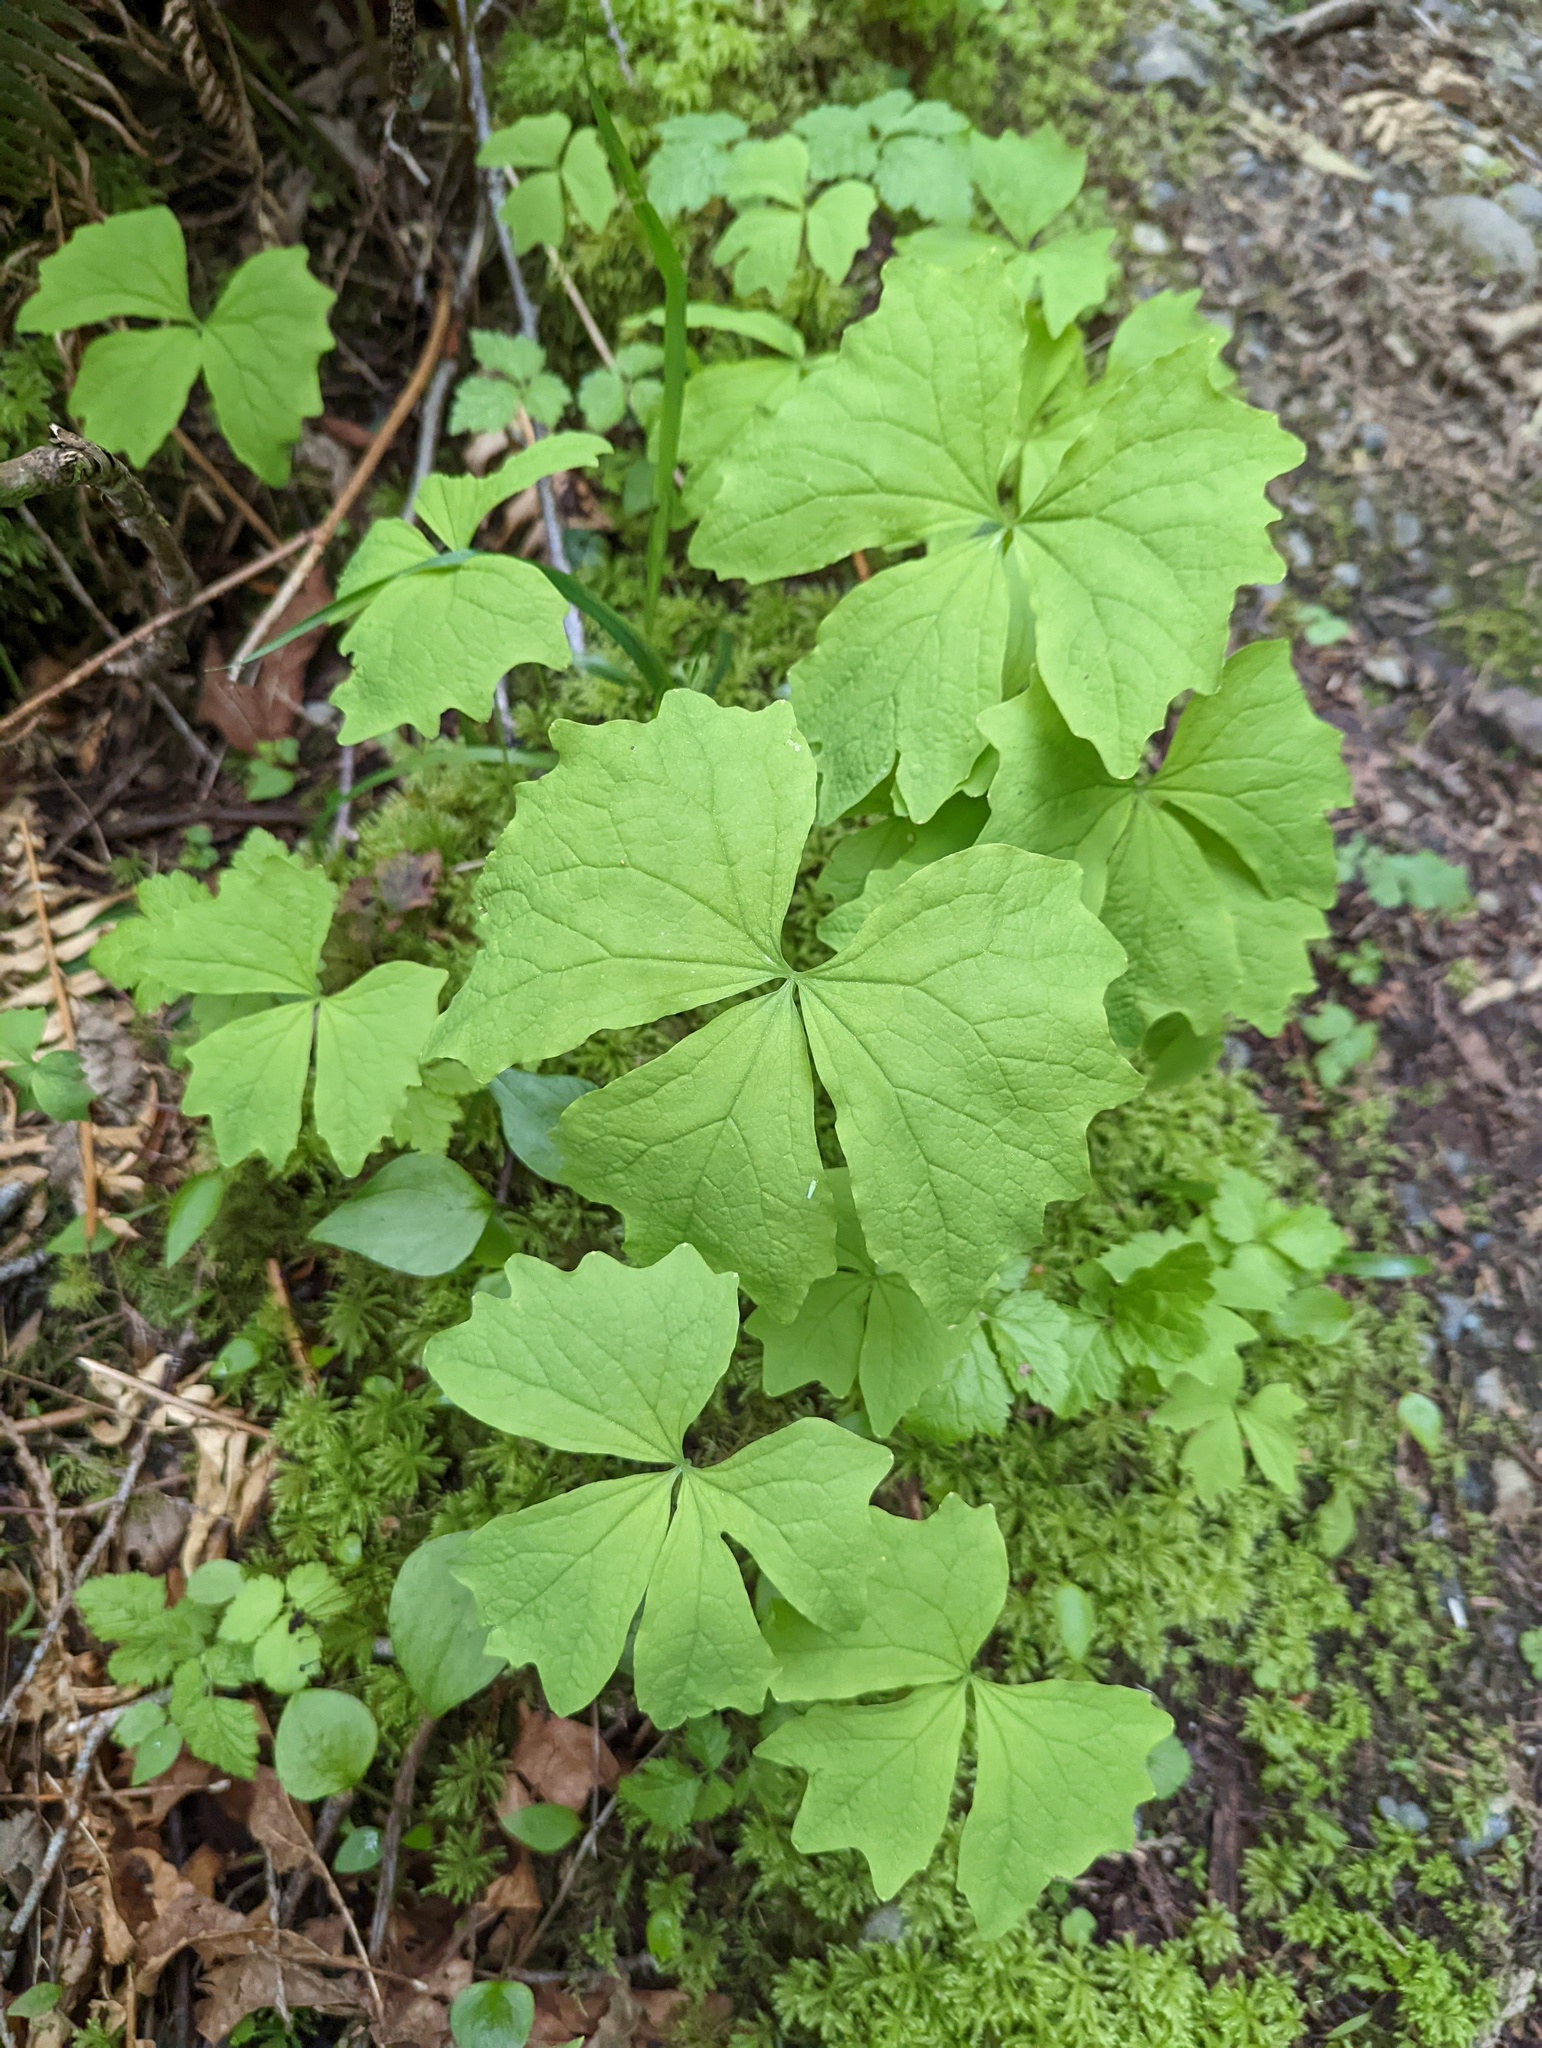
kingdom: Plantae
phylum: Tracheophyta
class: Magnoliopsida
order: Ranunculales
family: Berberidaceae
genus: Achlys
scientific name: Achlys triphylla
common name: Vanilla-leaf
